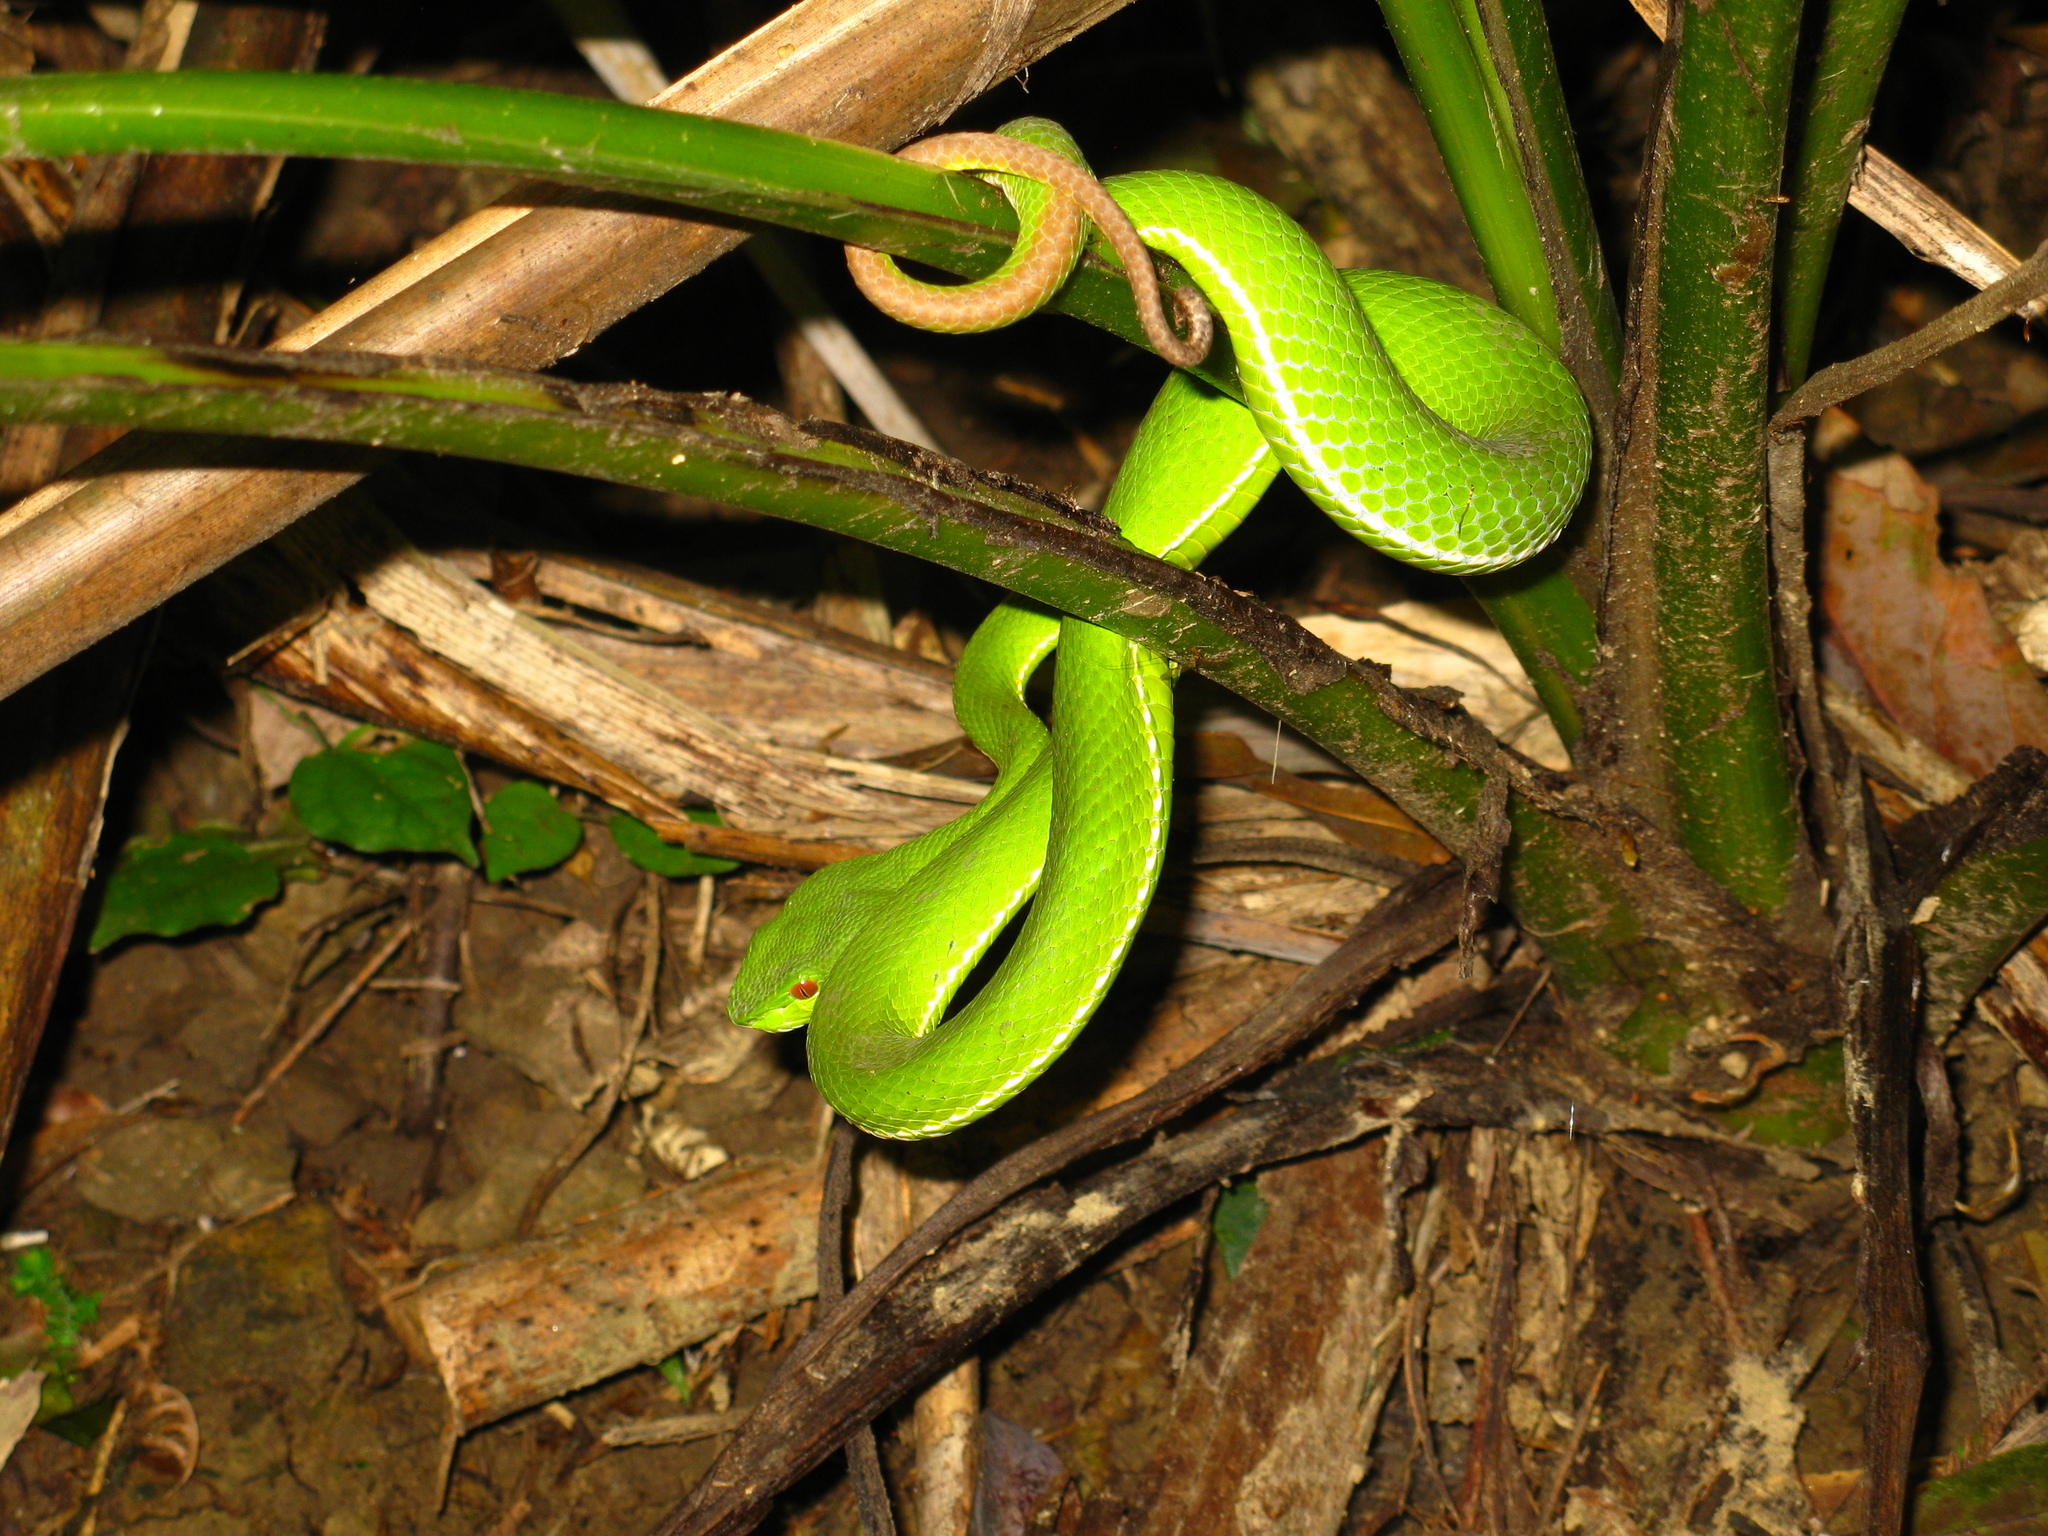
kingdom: Animalia
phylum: Chordata
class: Squamata
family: Viperidae
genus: Trimeresurus
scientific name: Trimeresurus stejnegeri
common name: Chen’s bamboo pit viper
